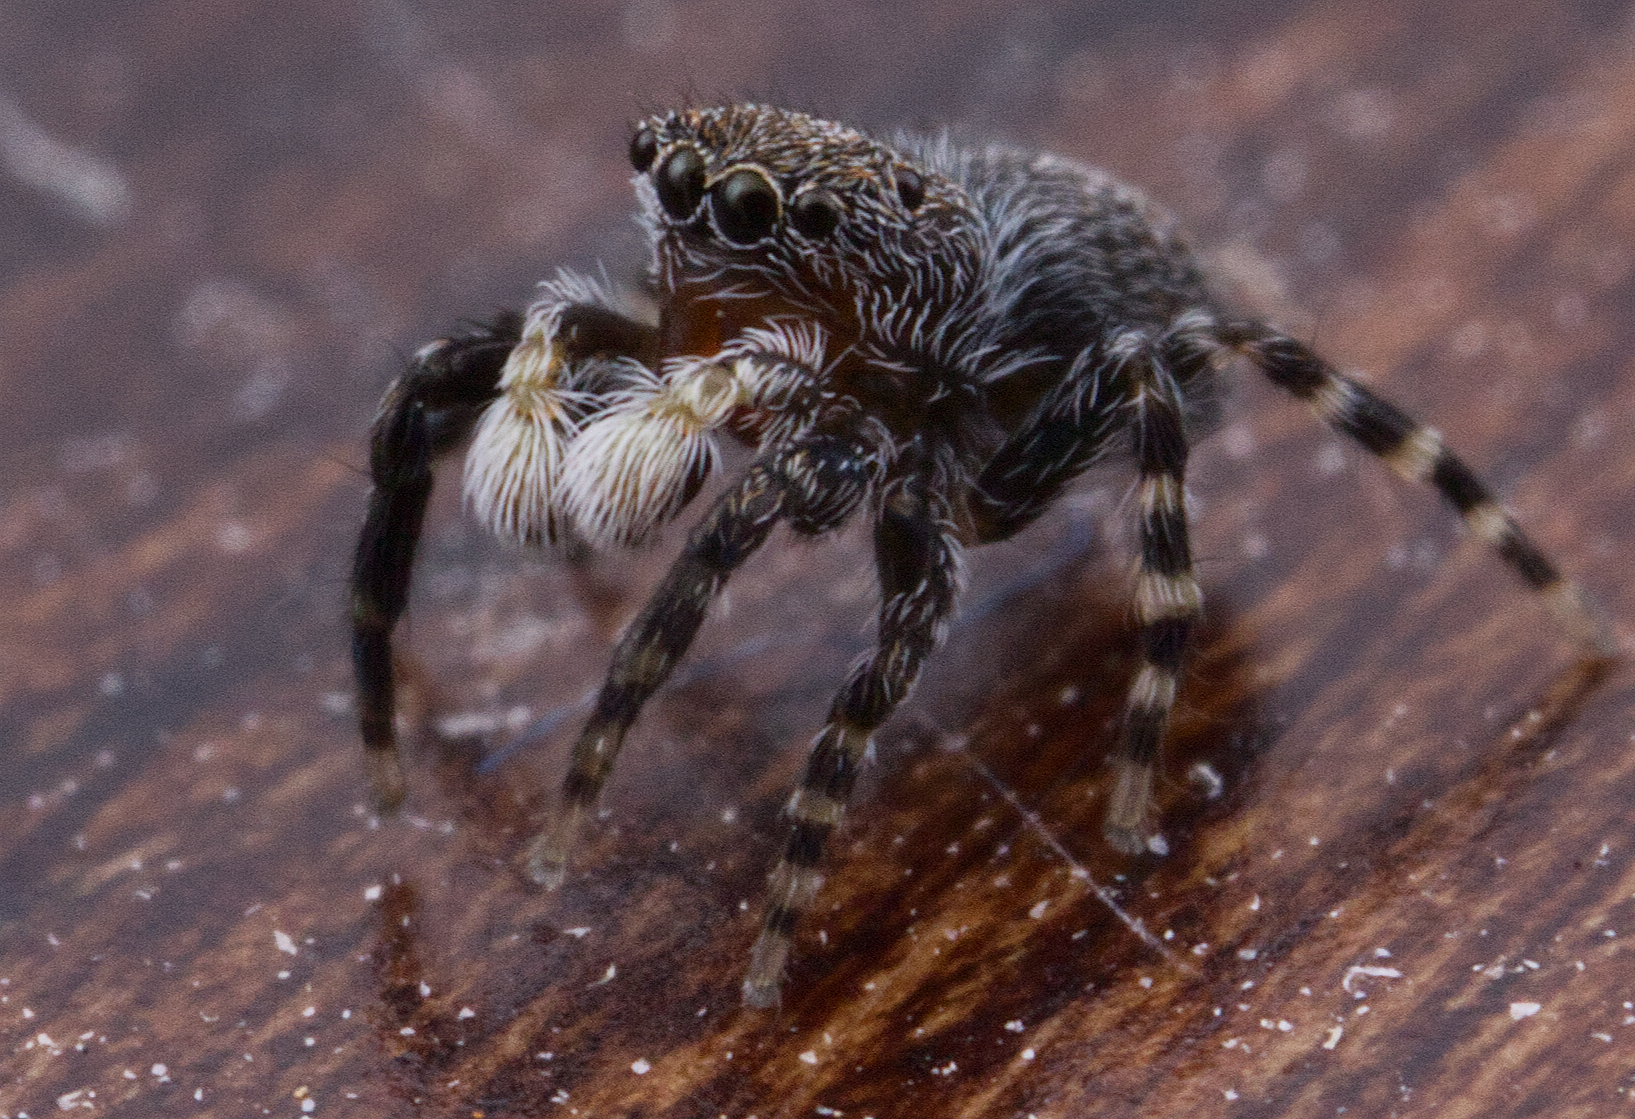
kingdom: Animalia
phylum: Arthropoda
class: Arachnida
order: Araneae
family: Salticidae
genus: Talavera
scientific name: Talavera minuta
